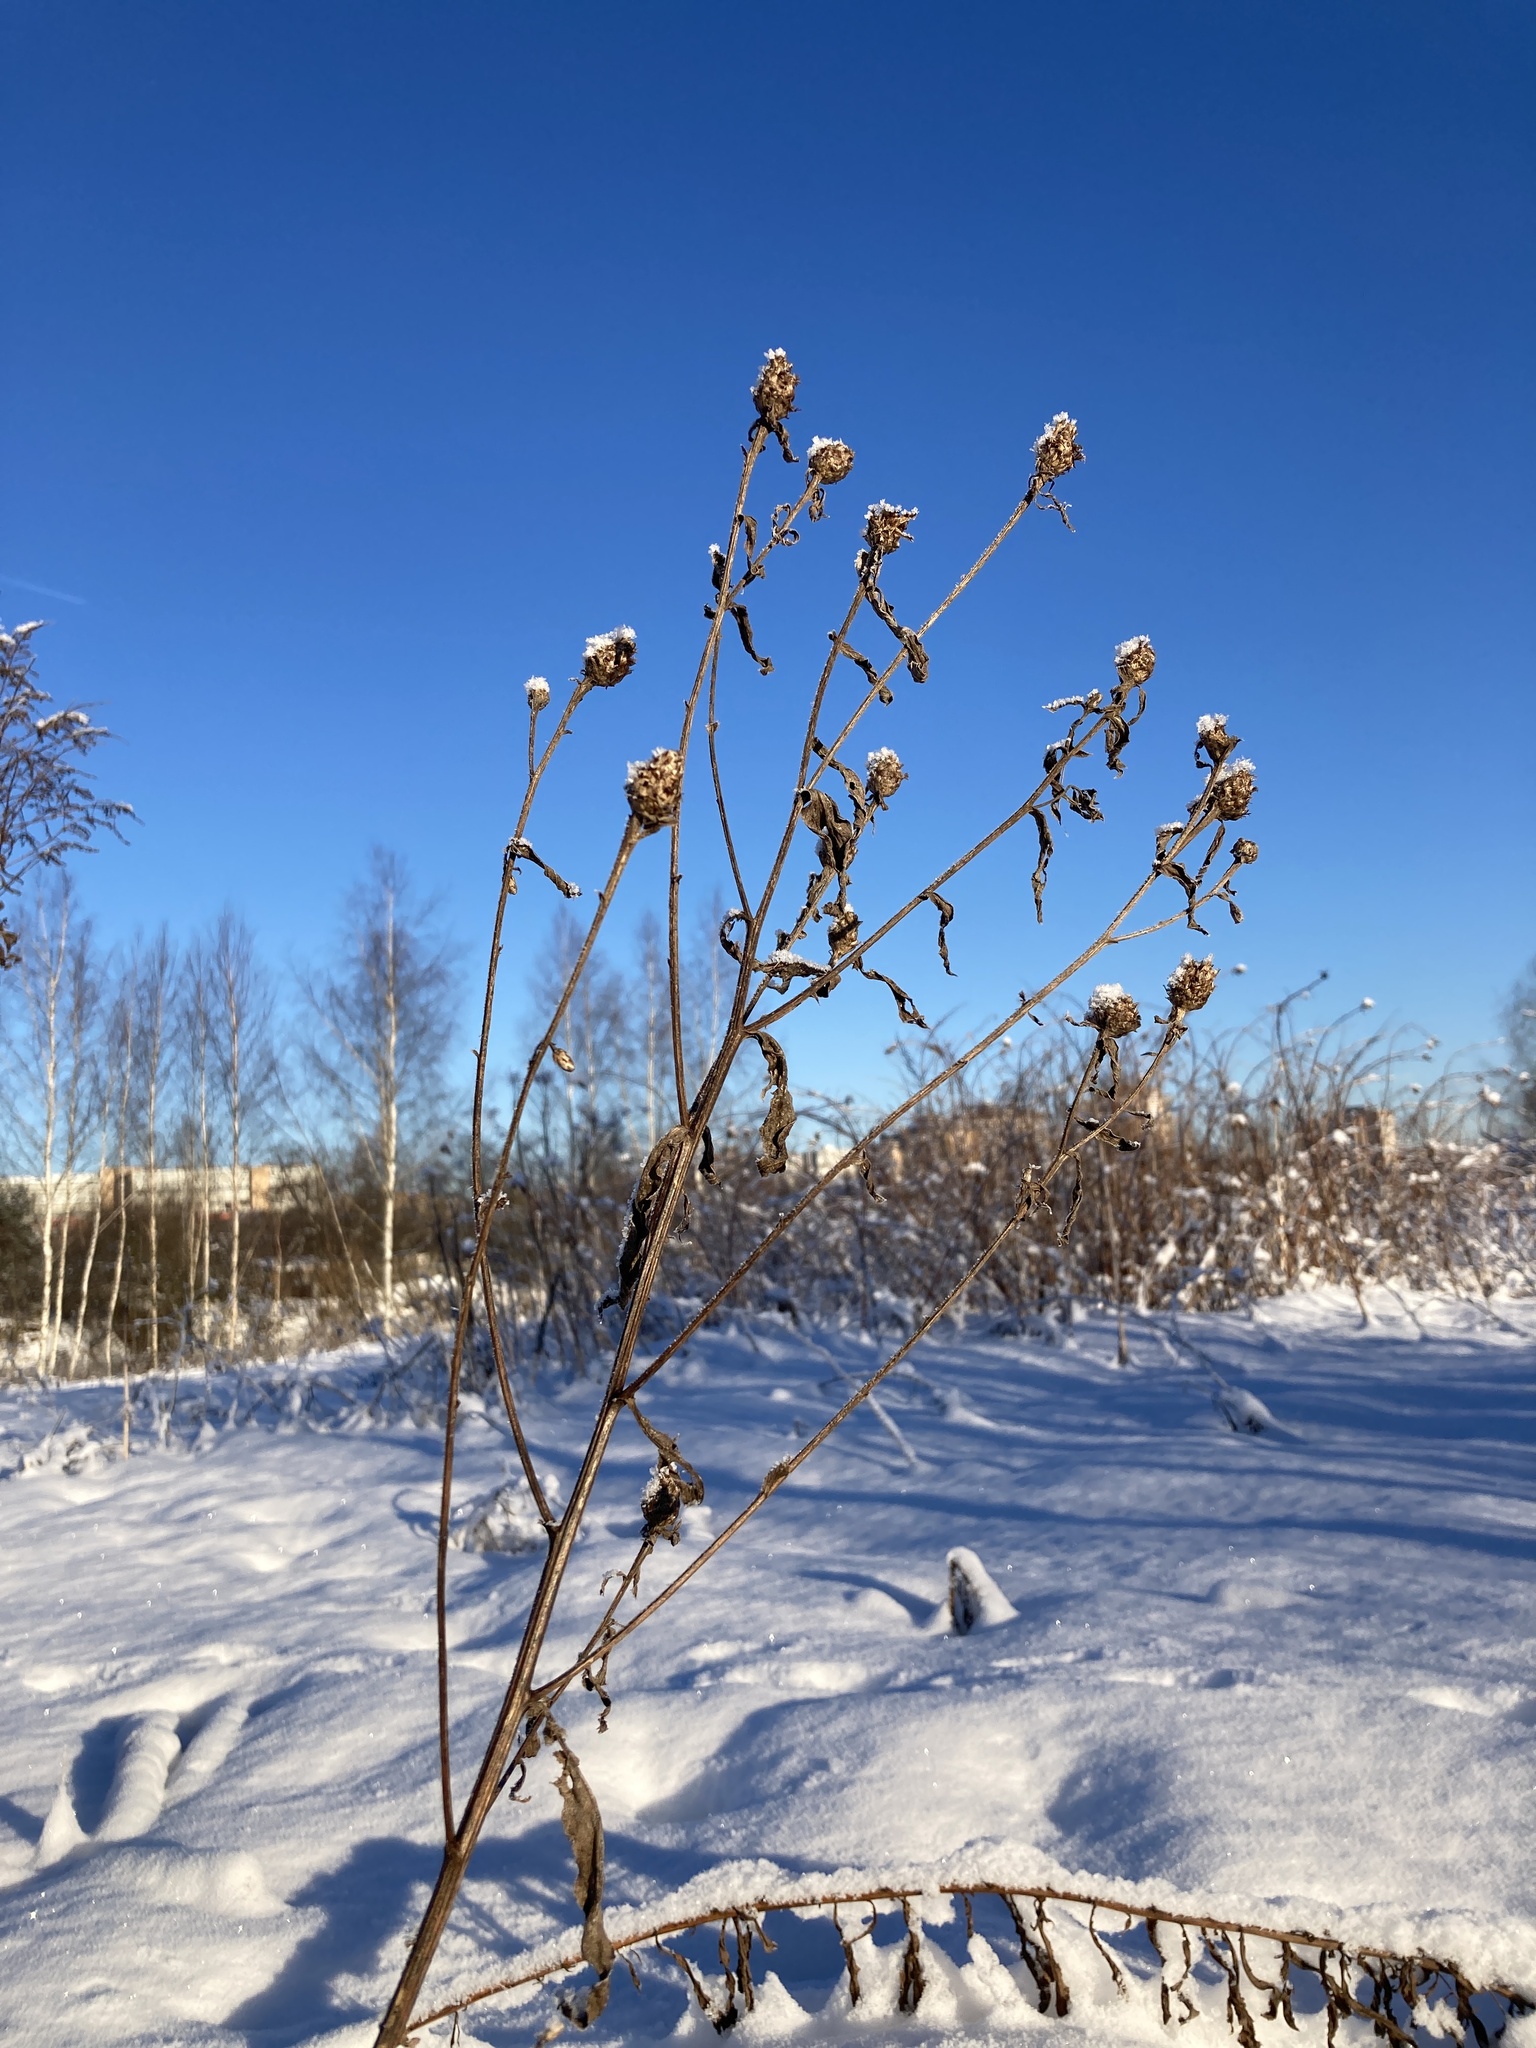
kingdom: Plantae
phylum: Tracheophyta
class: Magnoliopsida
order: Asterales
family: Asteraceae
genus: Centaurea
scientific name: Centaurea jacea
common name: Brown knapweed
